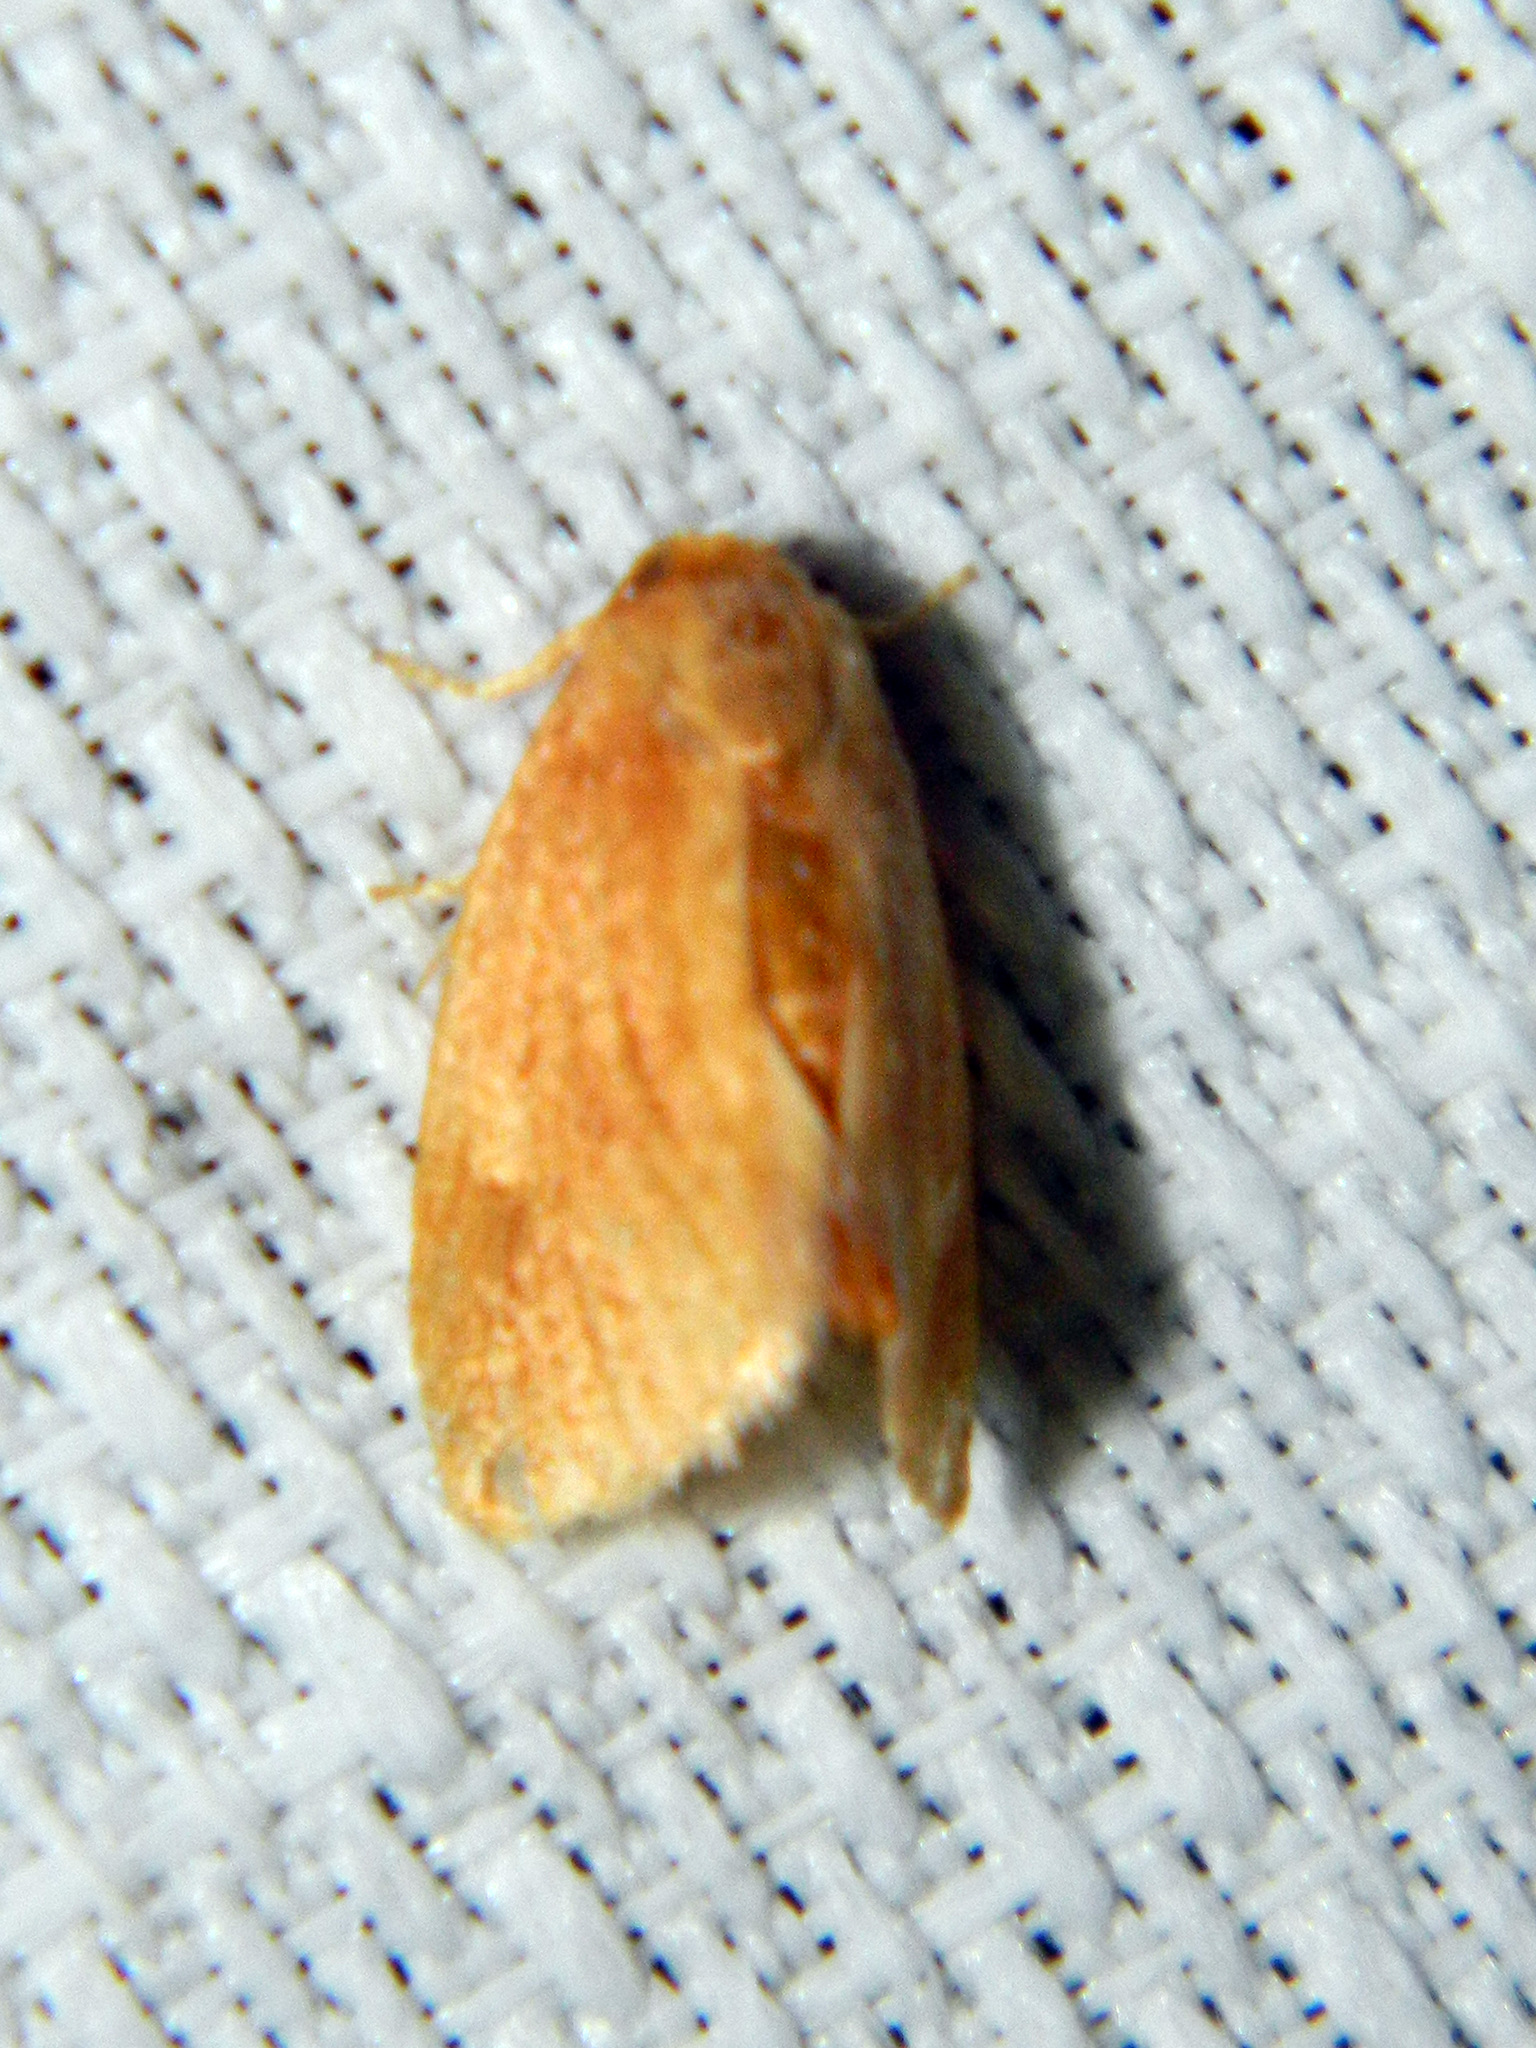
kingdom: Animalia
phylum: Arthropoda
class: Insecta
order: Lepidoptera
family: Limacodidae
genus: Tortricidia
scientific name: Tortricidia testacea
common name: Early button slug moth
